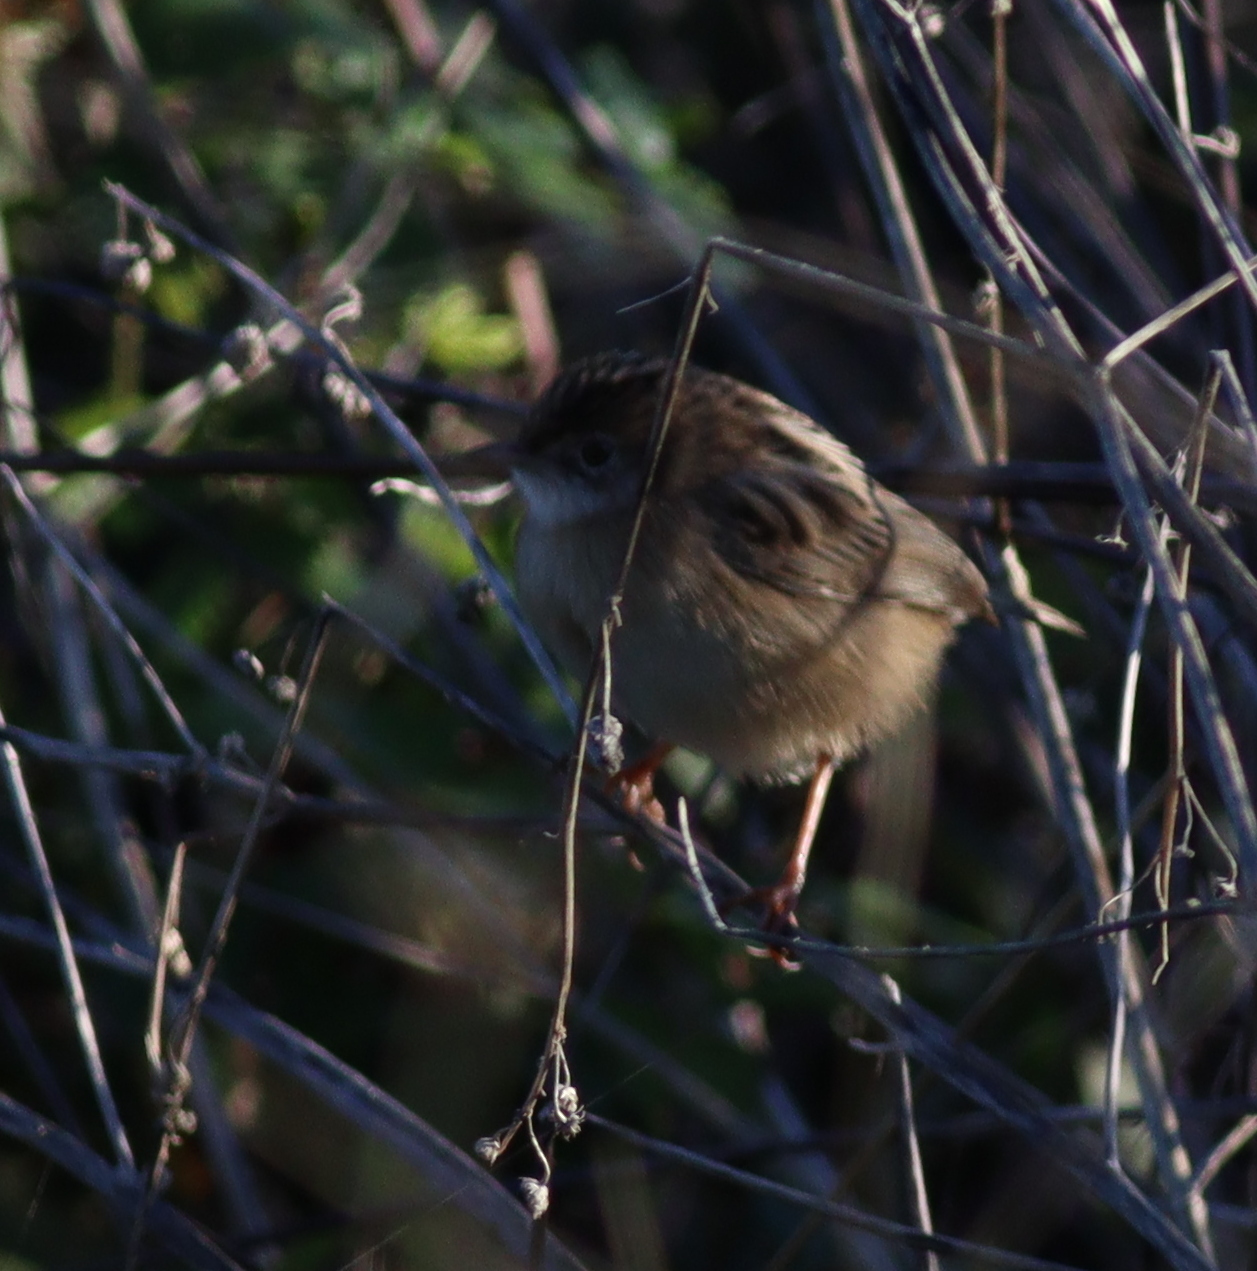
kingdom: Animalia
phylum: Chordata
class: Aves
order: Passeriformes
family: Cisticolidae
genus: Cisticola
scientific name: Cisticola juncidis
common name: Zitting cisticola
